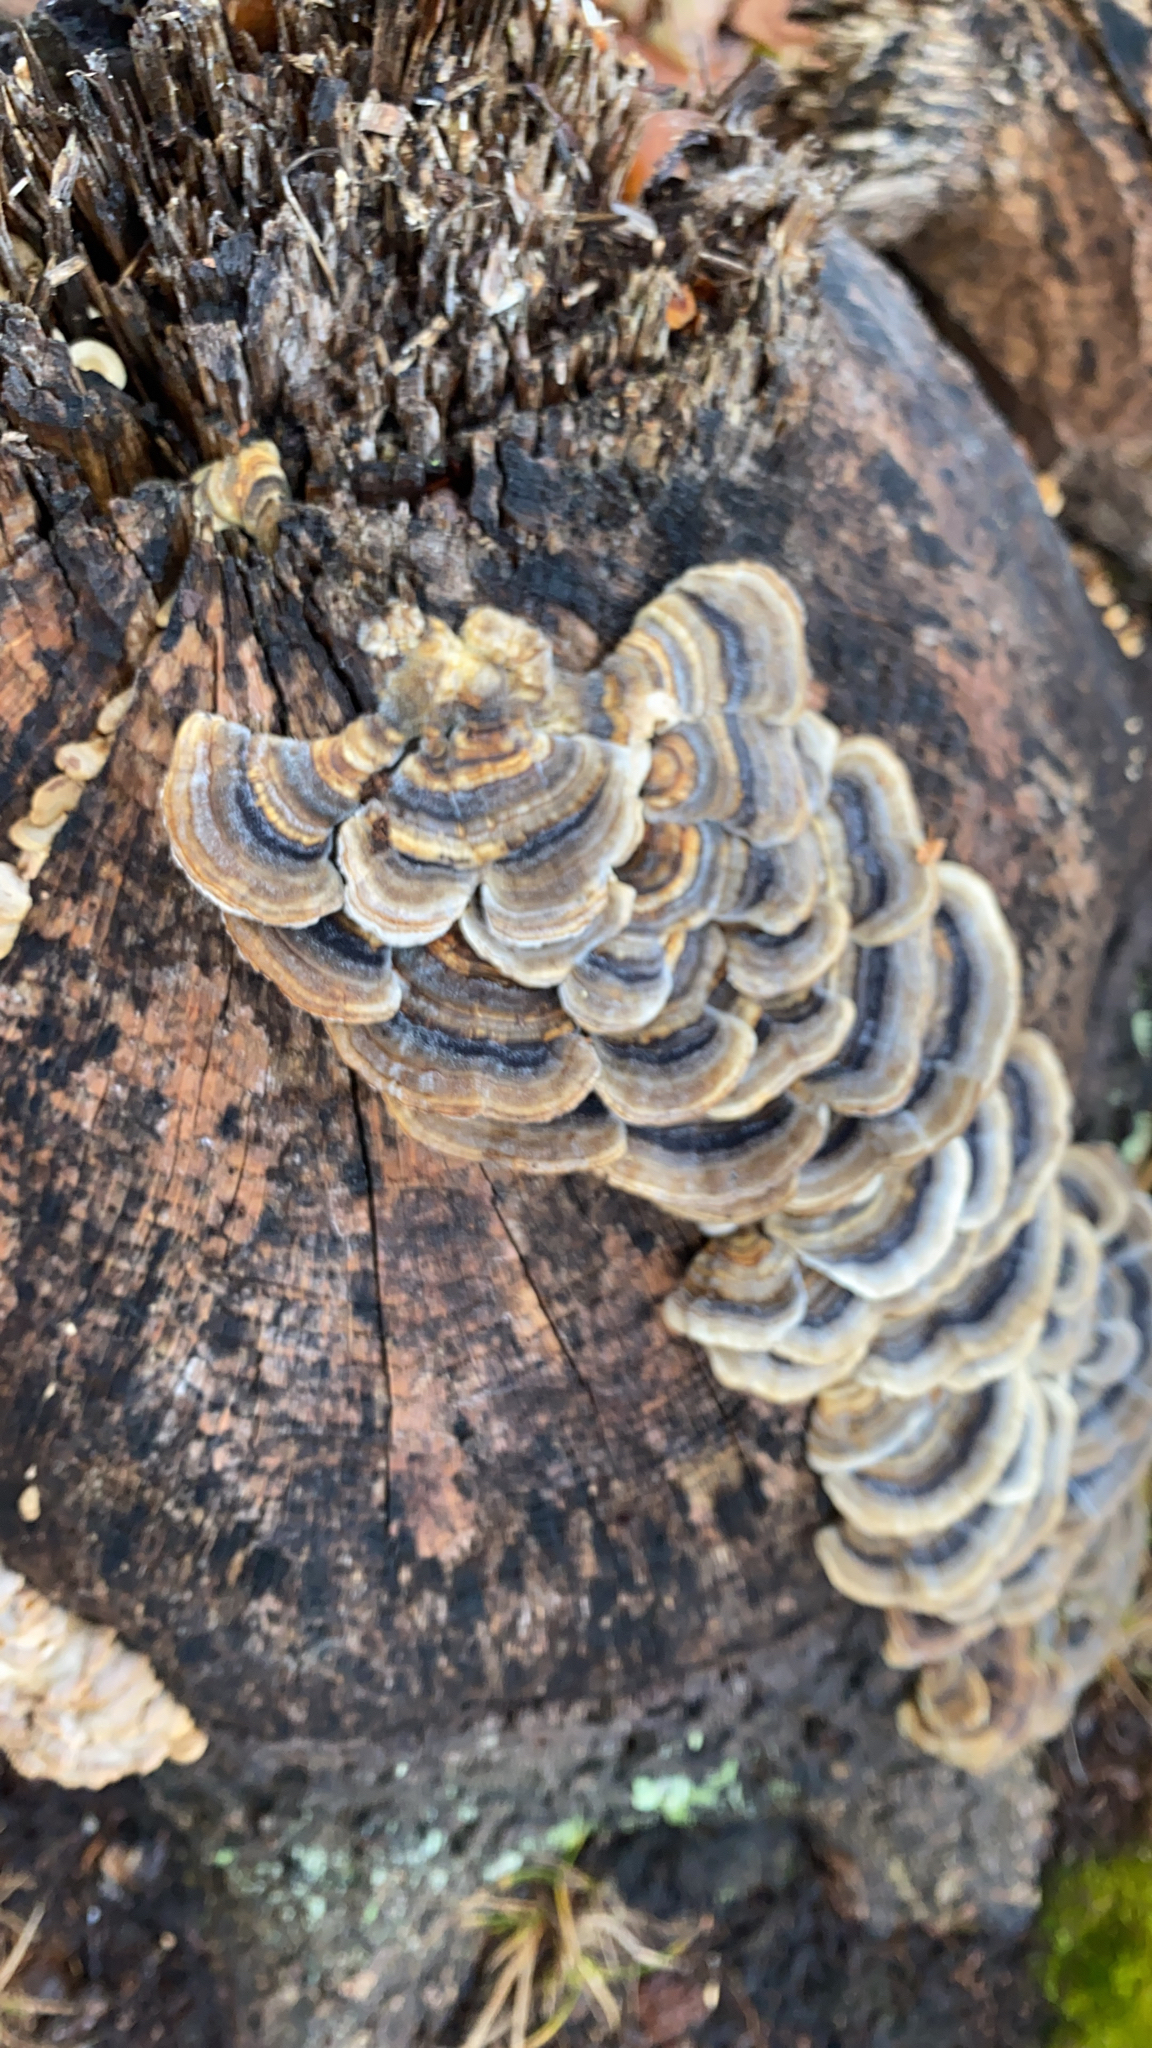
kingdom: Fungi
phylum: Basidiomycota
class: Agaricomycetes
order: Polyporales
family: Polyporaceae
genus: Trametes
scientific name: Trametes versicolor
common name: Turkeytail
